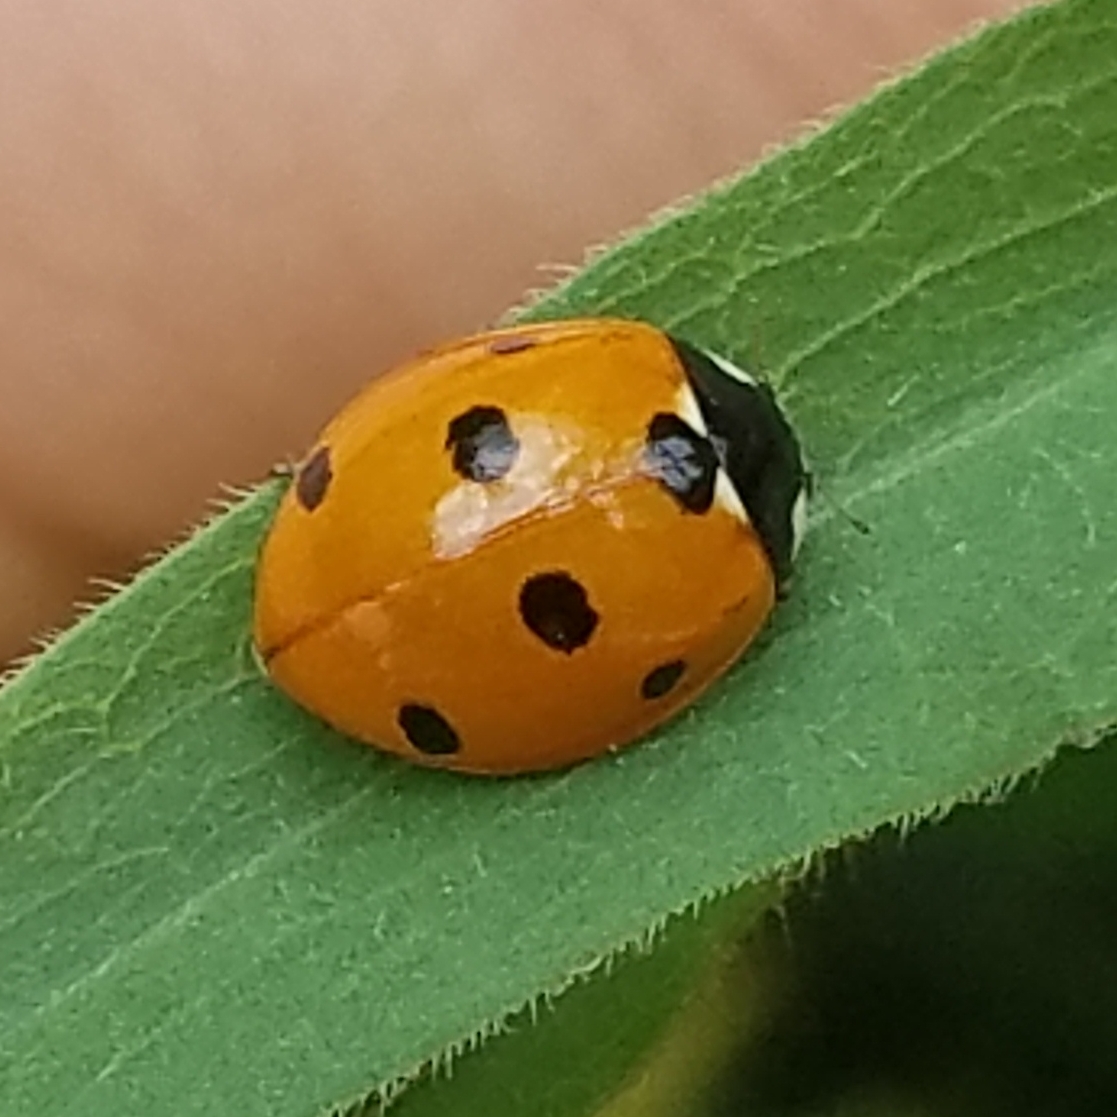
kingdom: Animalia
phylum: Arthropoda
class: Insecta
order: Coleoptera
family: Coccinellidae
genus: Coccinella
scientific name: Coccinella septempunctata
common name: Sevenspotted lady beetle
